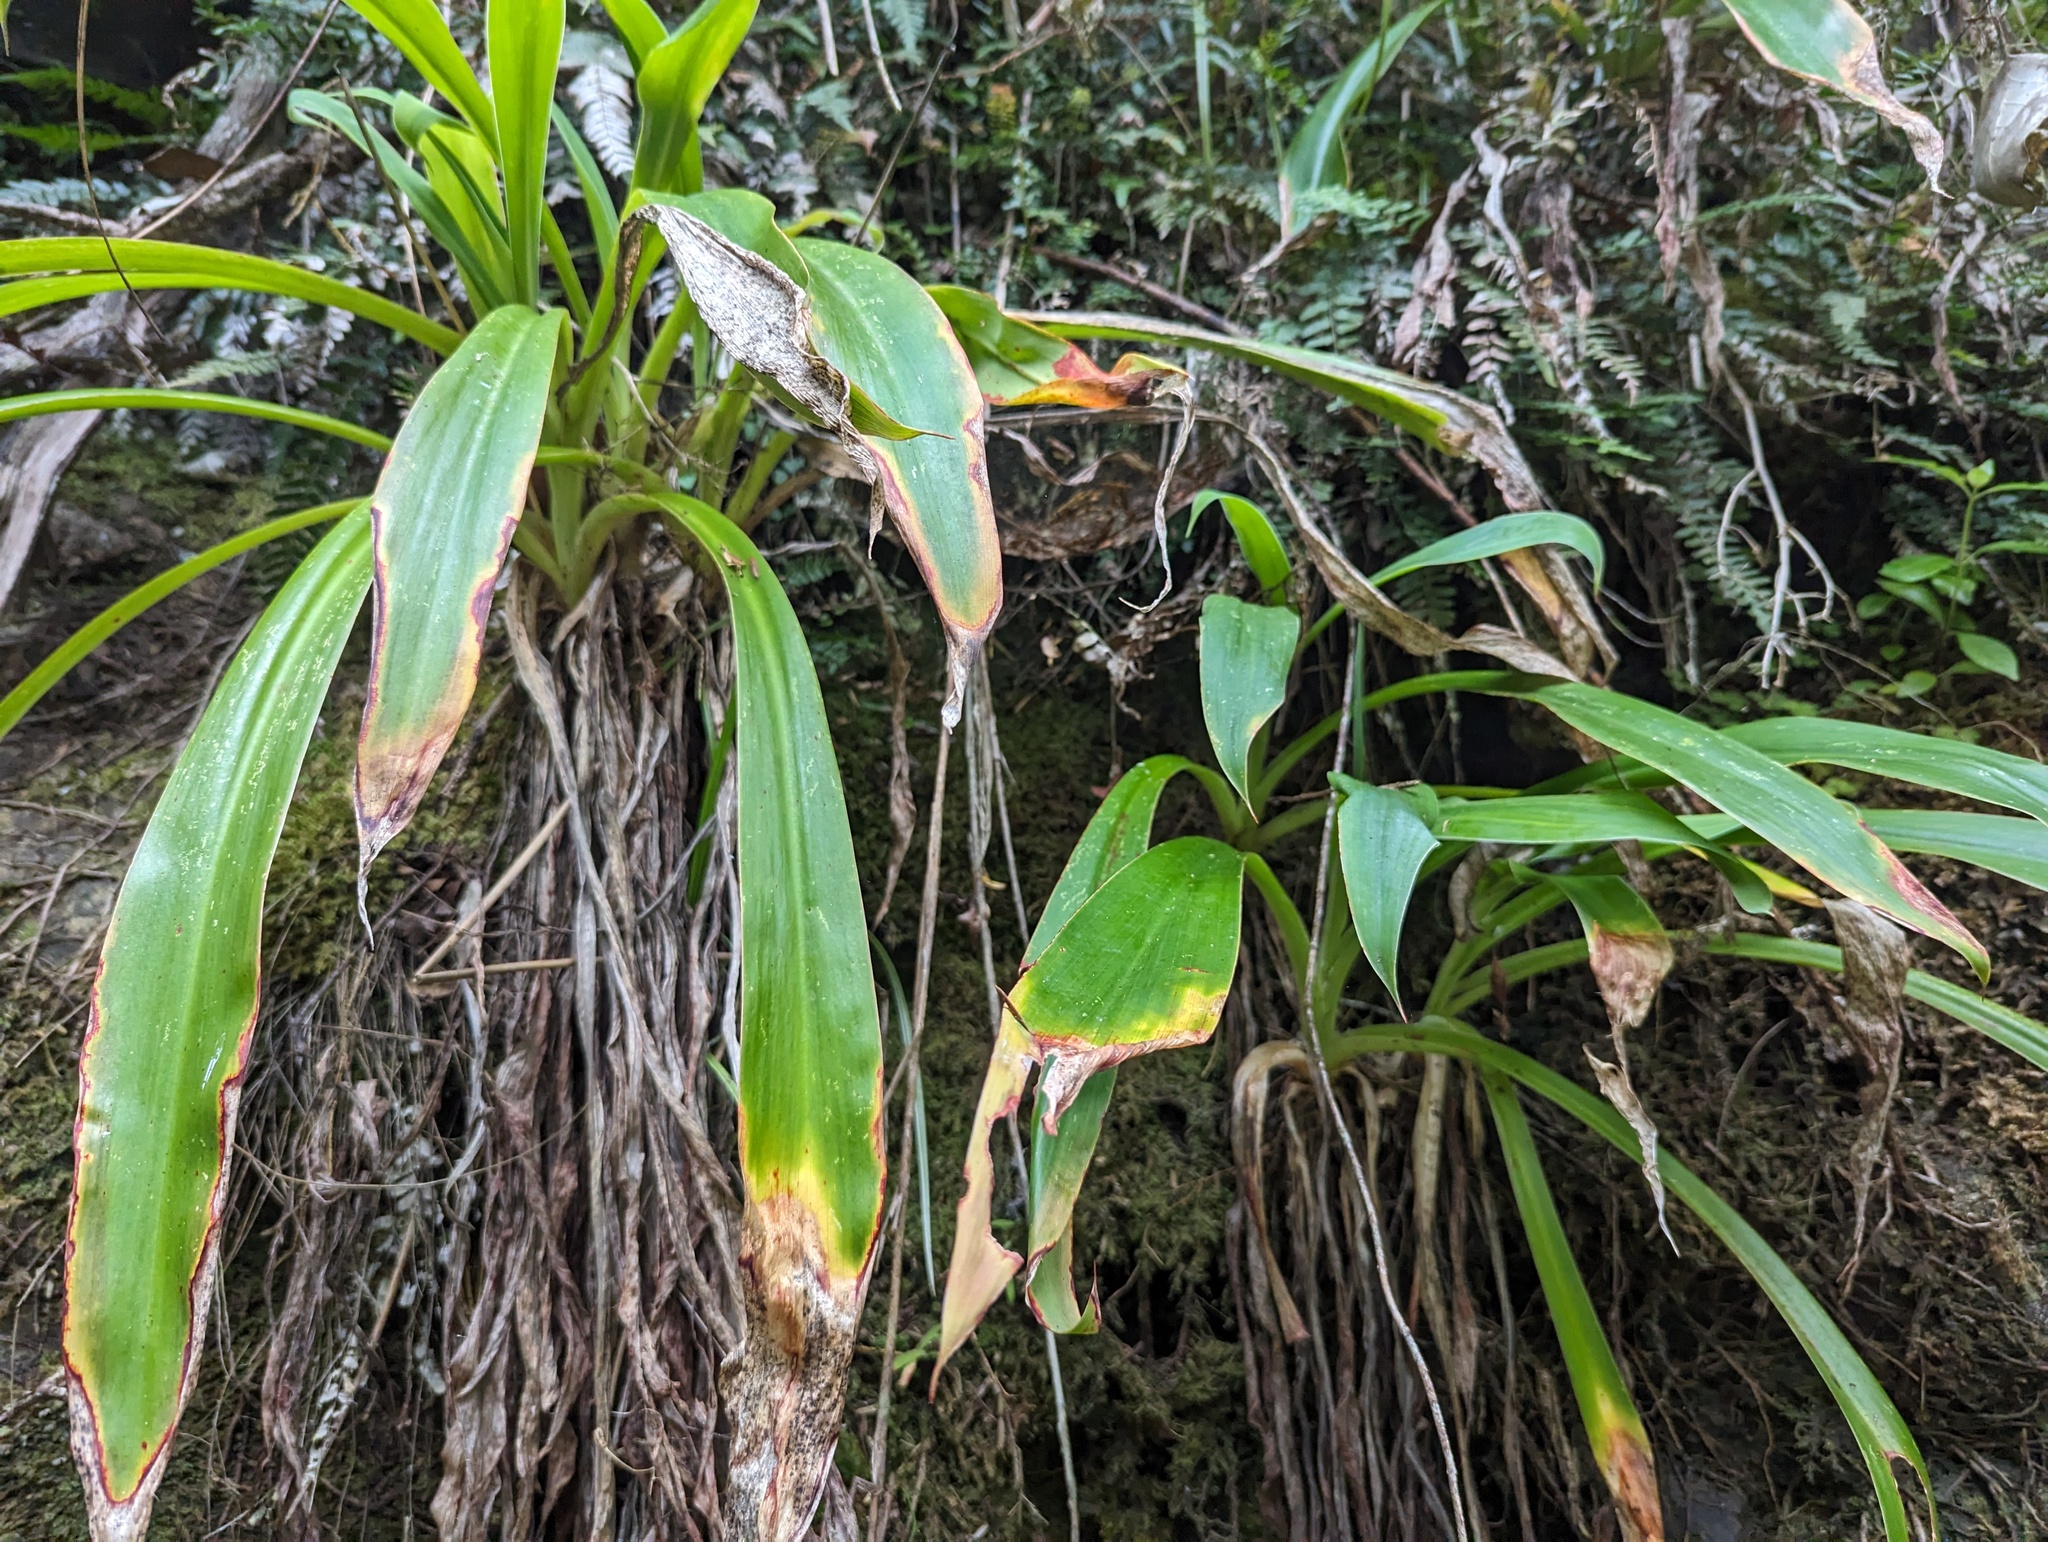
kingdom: Plantae
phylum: Tracheophyta
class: Liliopsida
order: Asparagales
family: Asparagaceae
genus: Arthropodium
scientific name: Arthropodium cirratum
